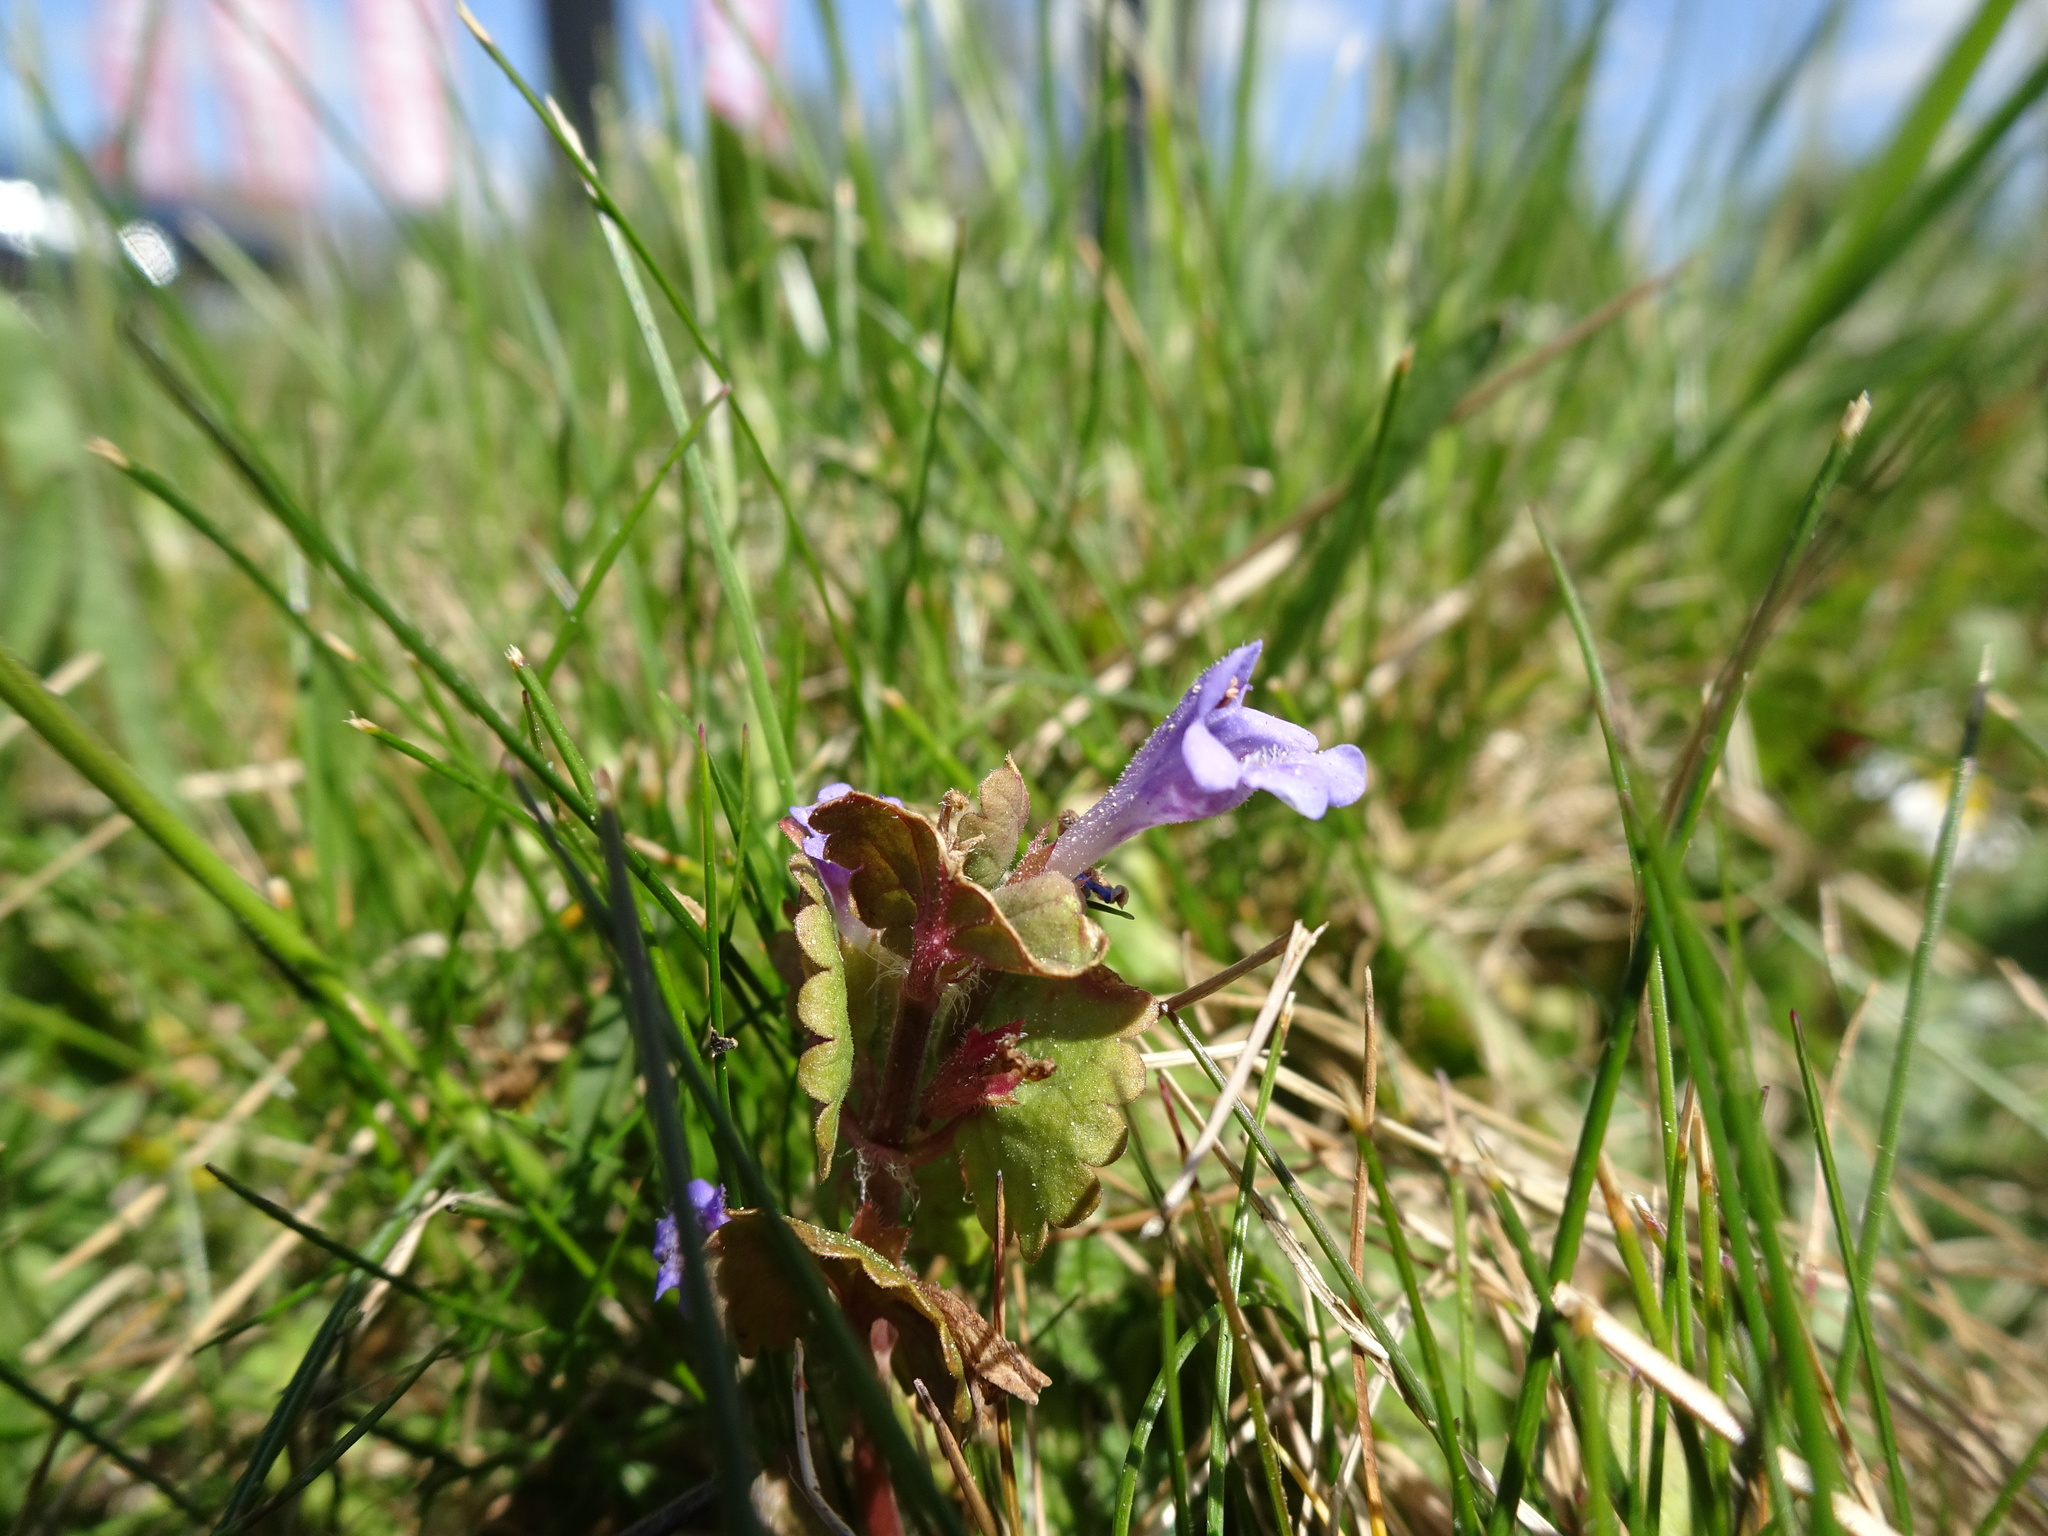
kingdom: Plantae
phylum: Tracheophyta
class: Magnoliopsida
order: Lamiales
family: Lamiaceae
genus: Glechoma
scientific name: Glechoma hederacea
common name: Ground ivy
